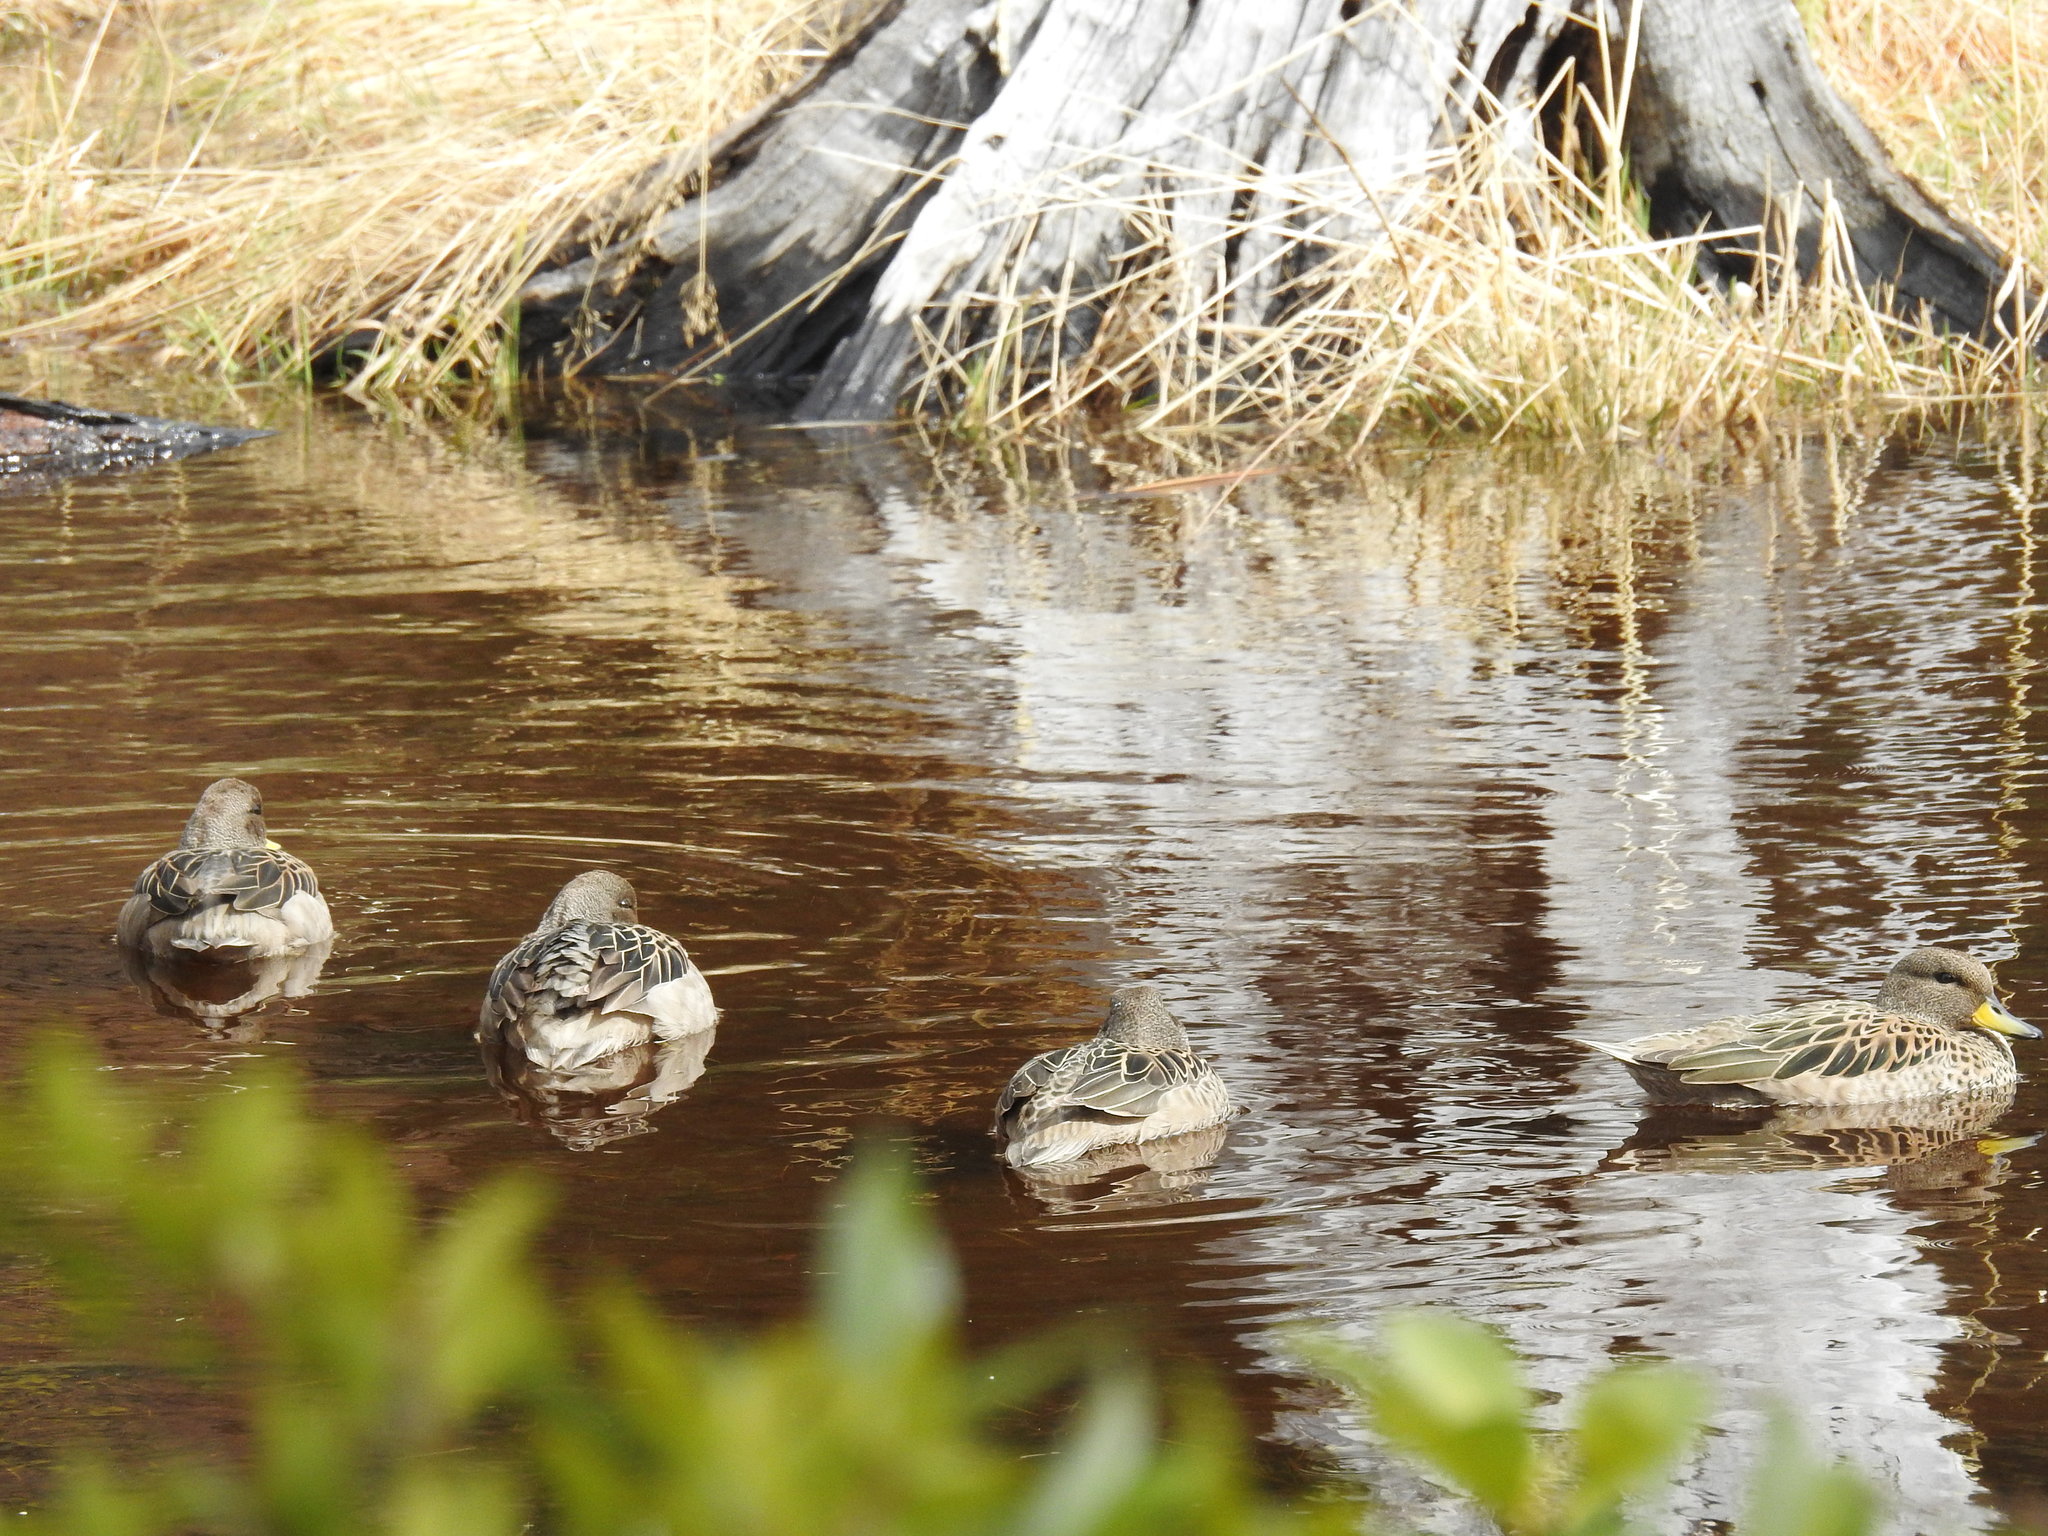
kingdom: Animalia
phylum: Chordata
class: Aves
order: Anseriformes
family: Anatidae
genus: Anas
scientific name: Anas flavirostris
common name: Yellow-billed teal
